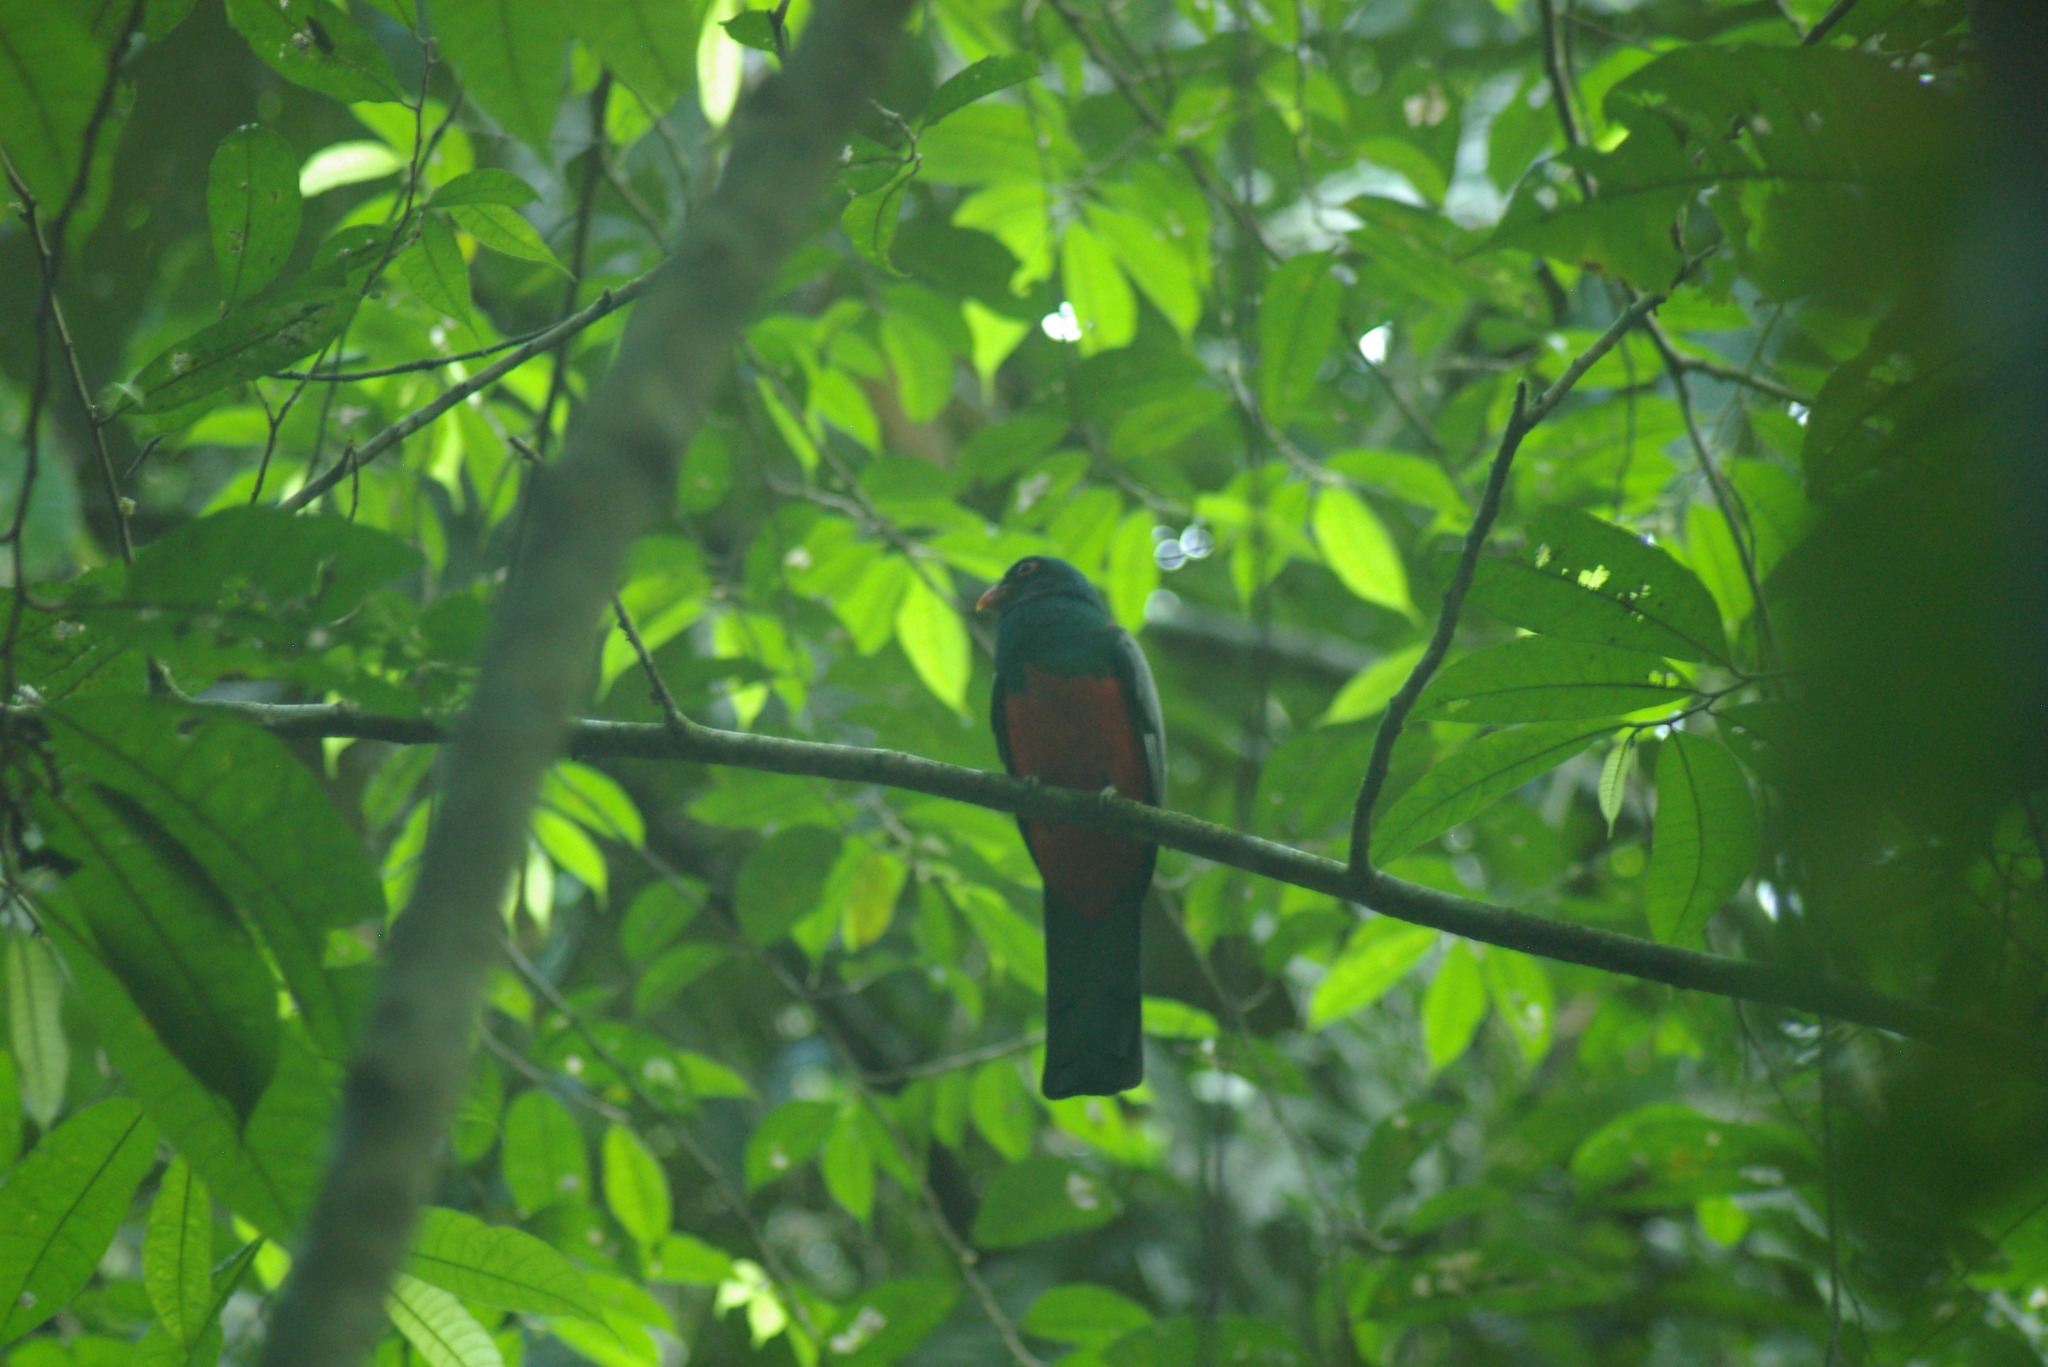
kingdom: Animalia
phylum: Chordata
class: Aves
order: Trogoniformes
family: Trogonidae
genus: Trogon
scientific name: Trogon massena
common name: Slaty-tailed trogon
